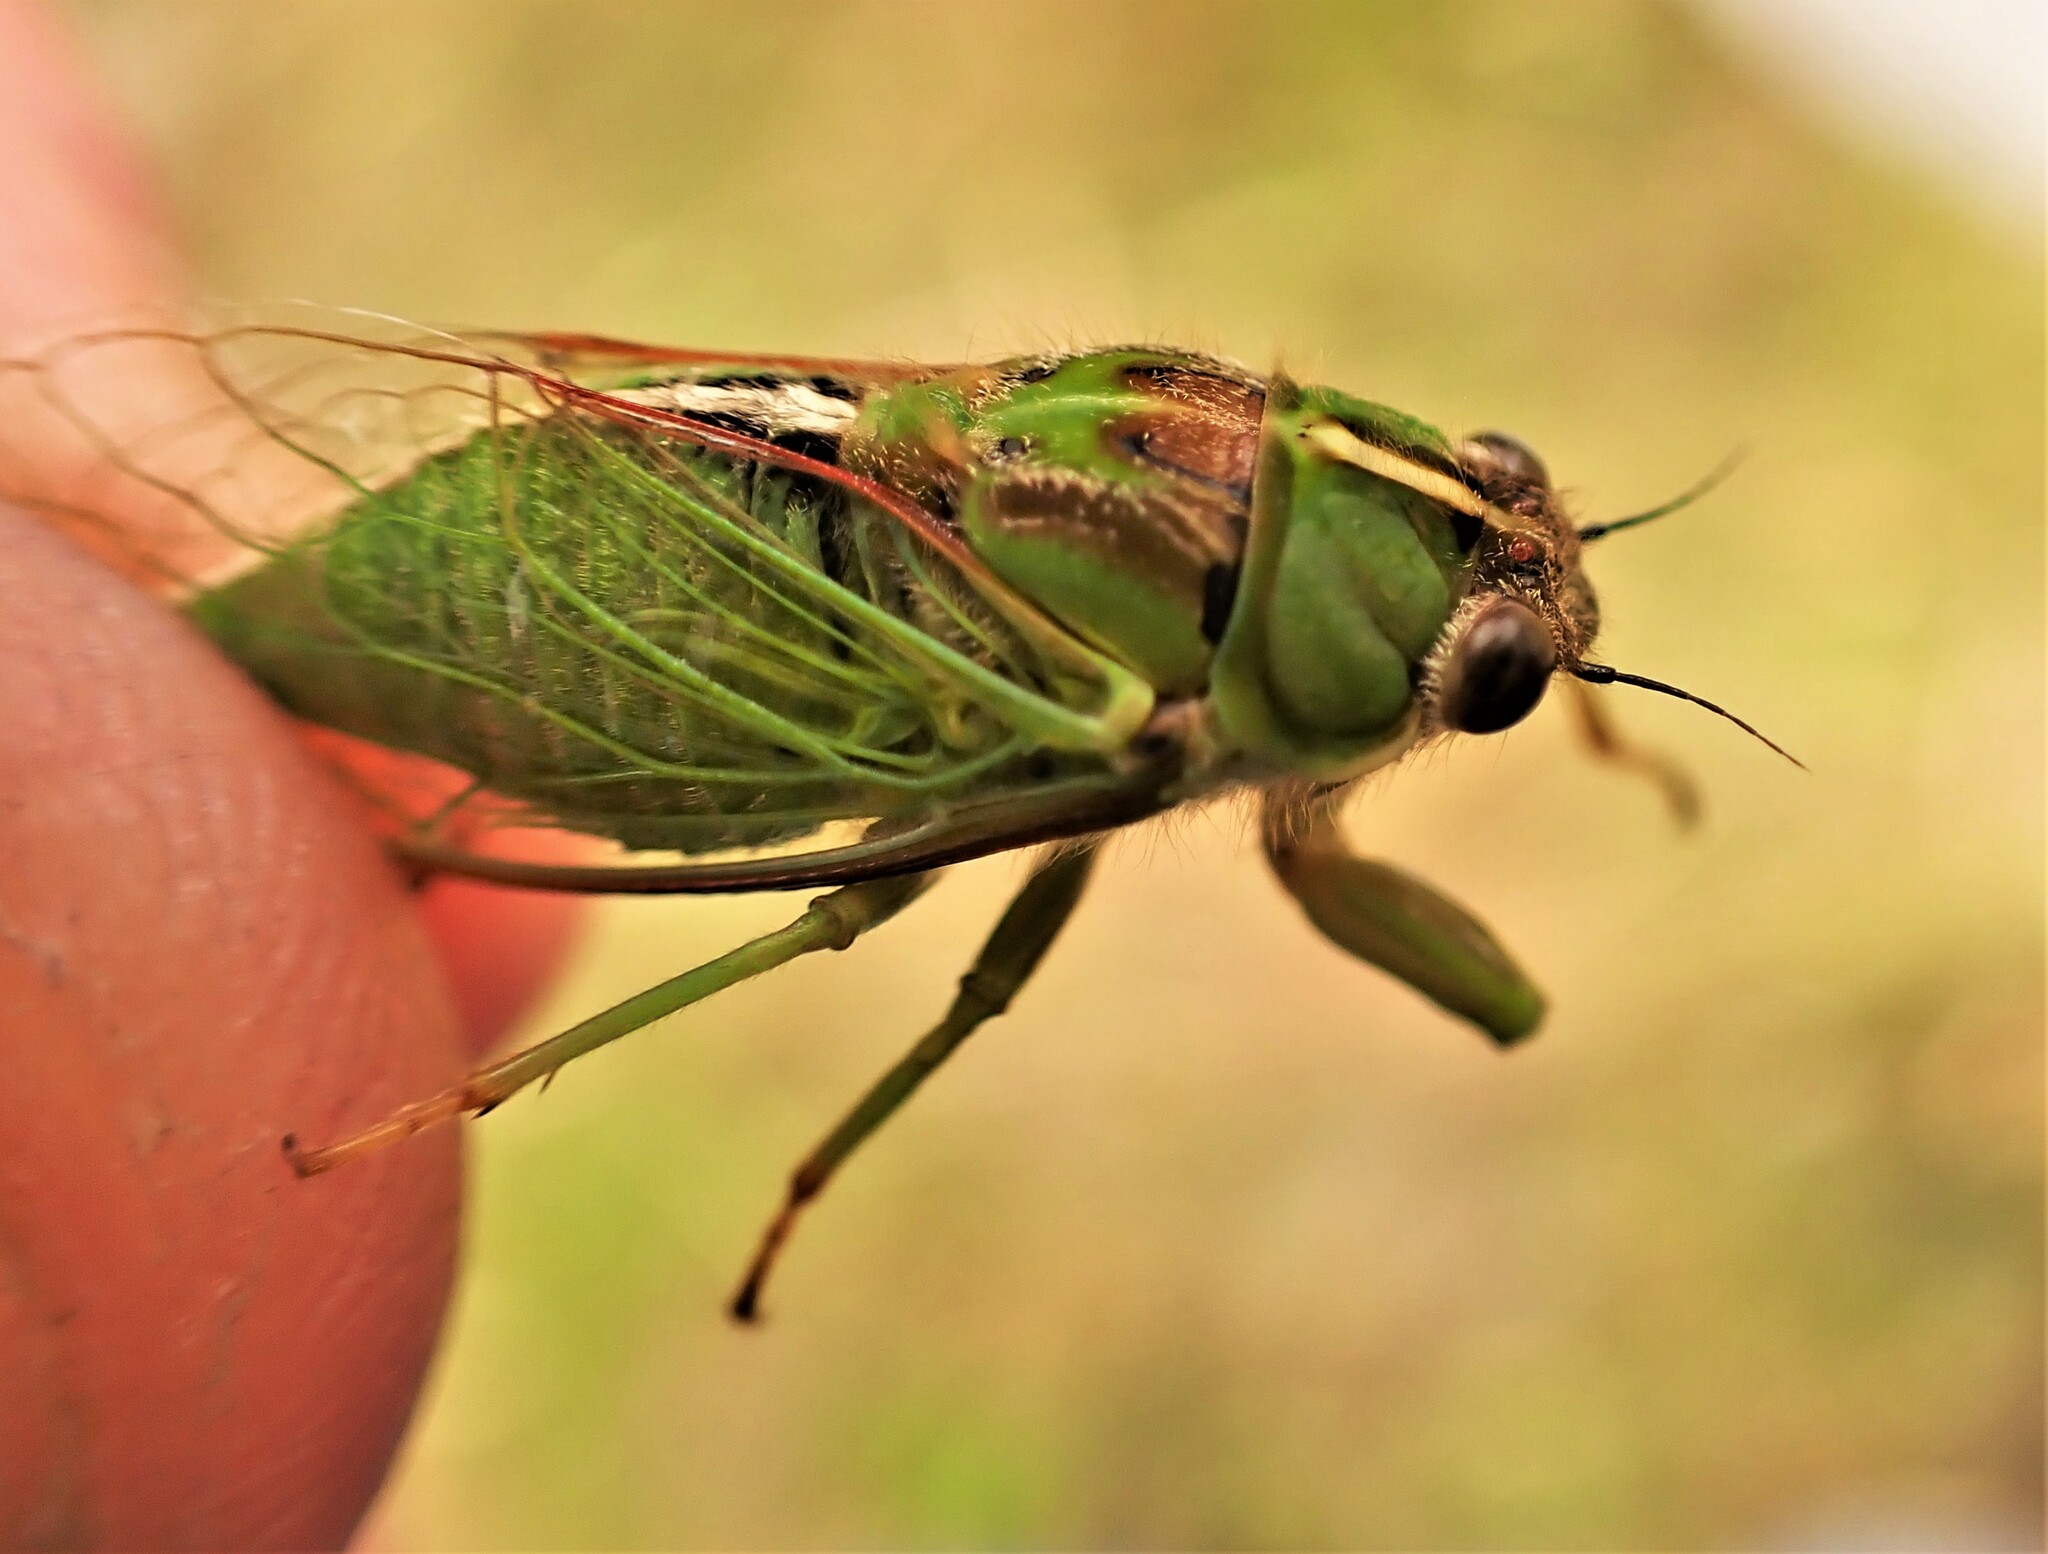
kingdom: Animalia
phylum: Arthropoda
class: Insecta
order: Hemiptera
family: Cicadidae
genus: Kikihia
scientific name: Kikihia muta
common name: Variable cicada
